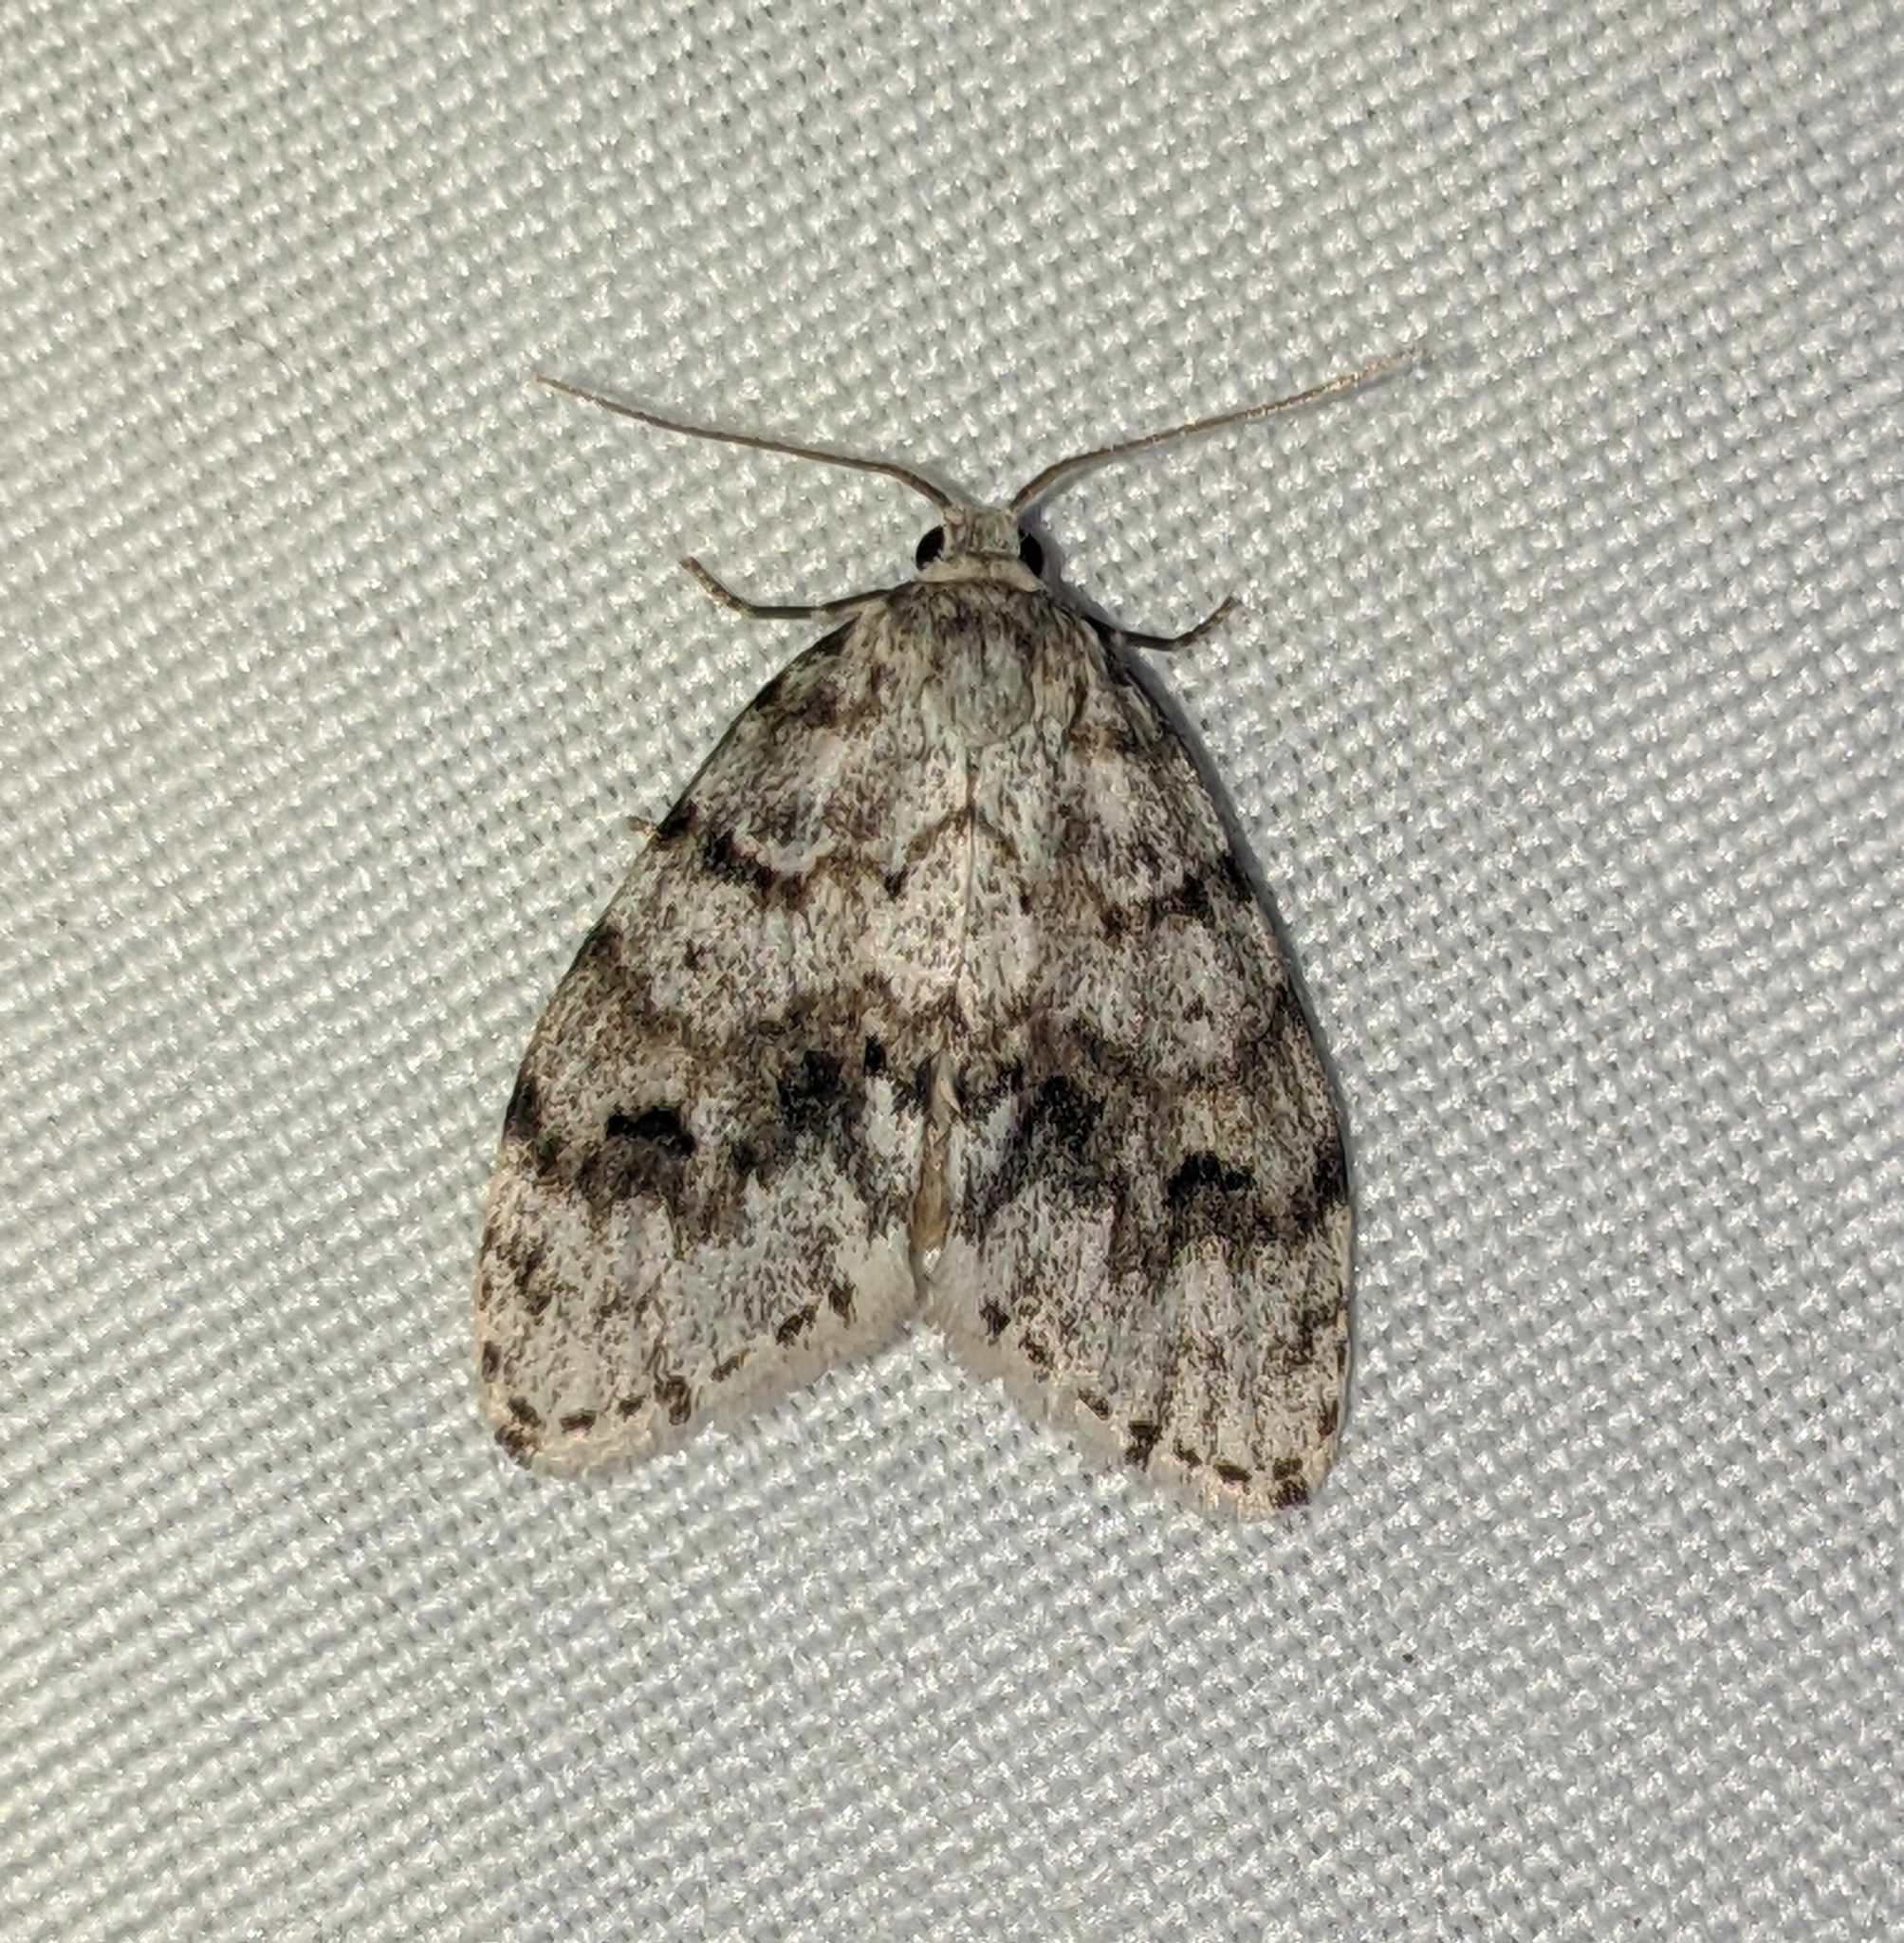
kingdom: Animalia
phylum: Arthropoda
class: Insecta
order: Lepidoptera
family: Erebidae
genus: Clemensia
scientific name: Clemensia umbrata
